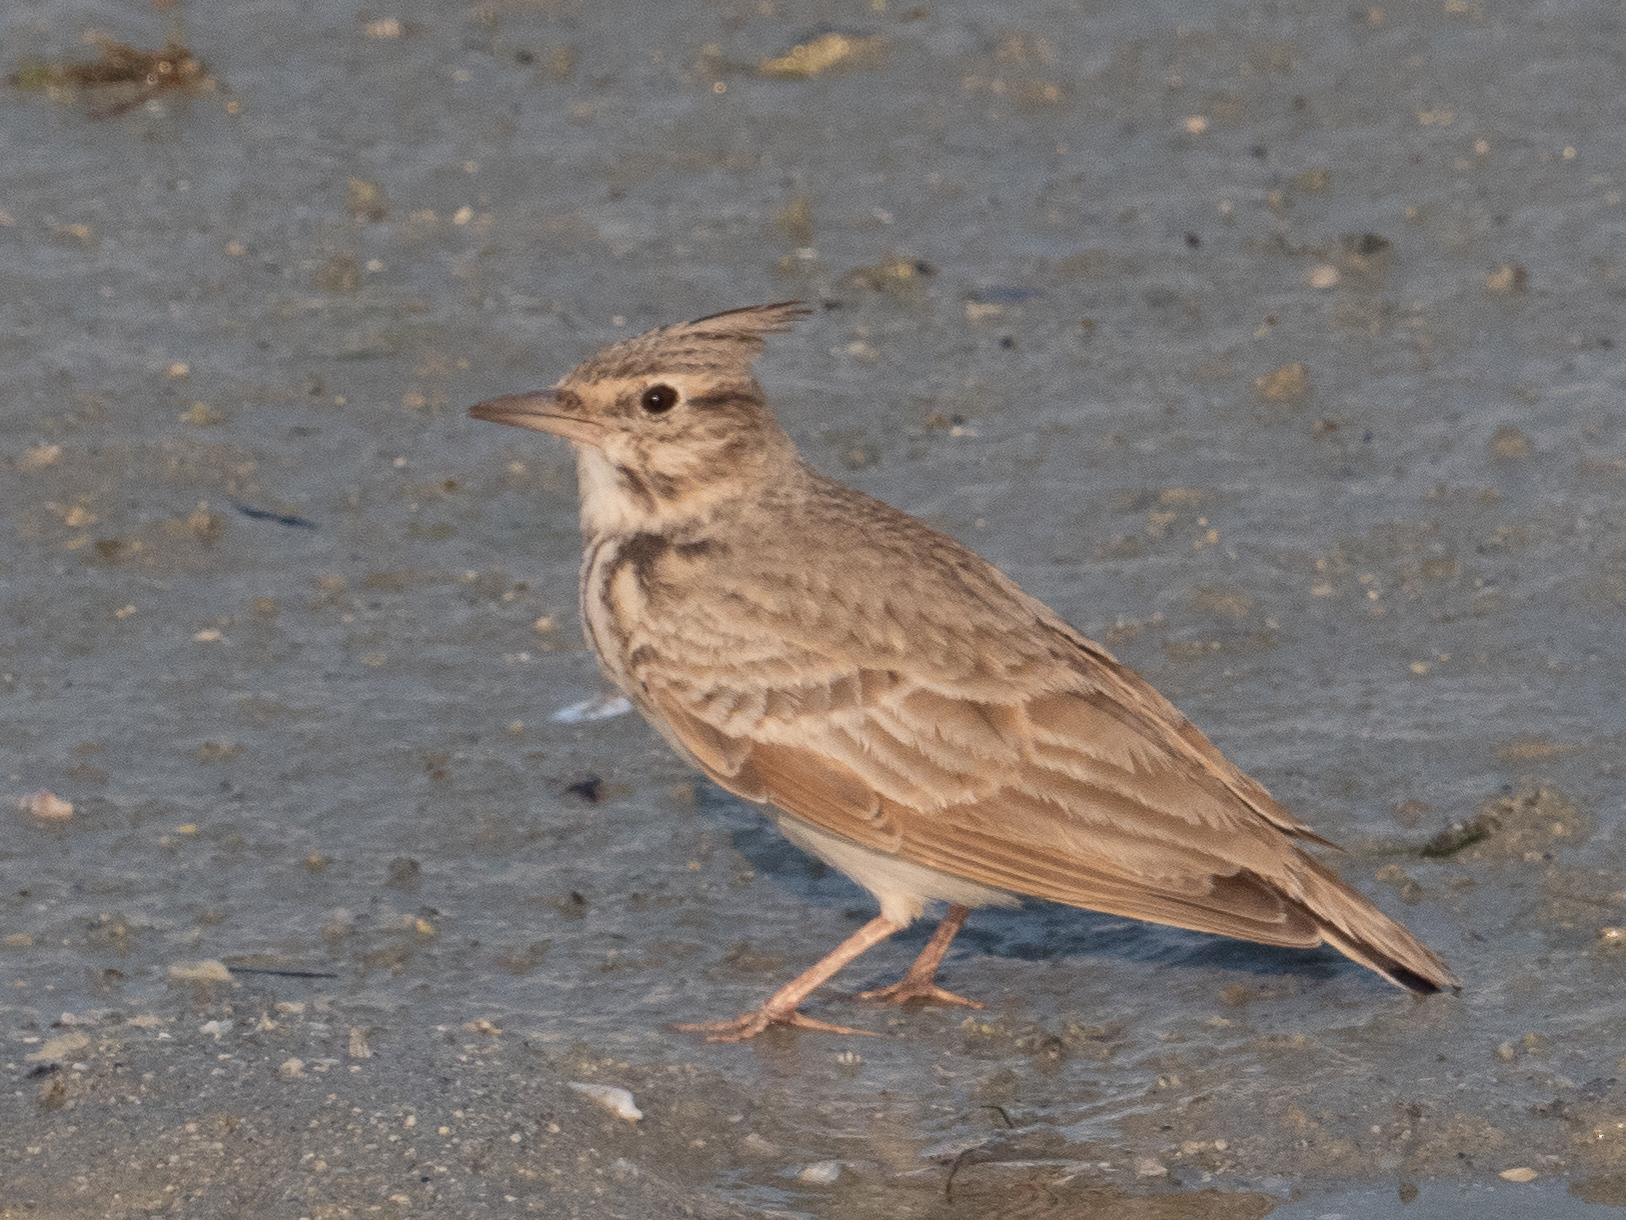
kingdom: Animalia
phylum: Chordata
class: Aves
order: Passeriformes
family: Alaudidae
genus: Galerida
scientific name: Galerida cristata
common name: Crested lark
